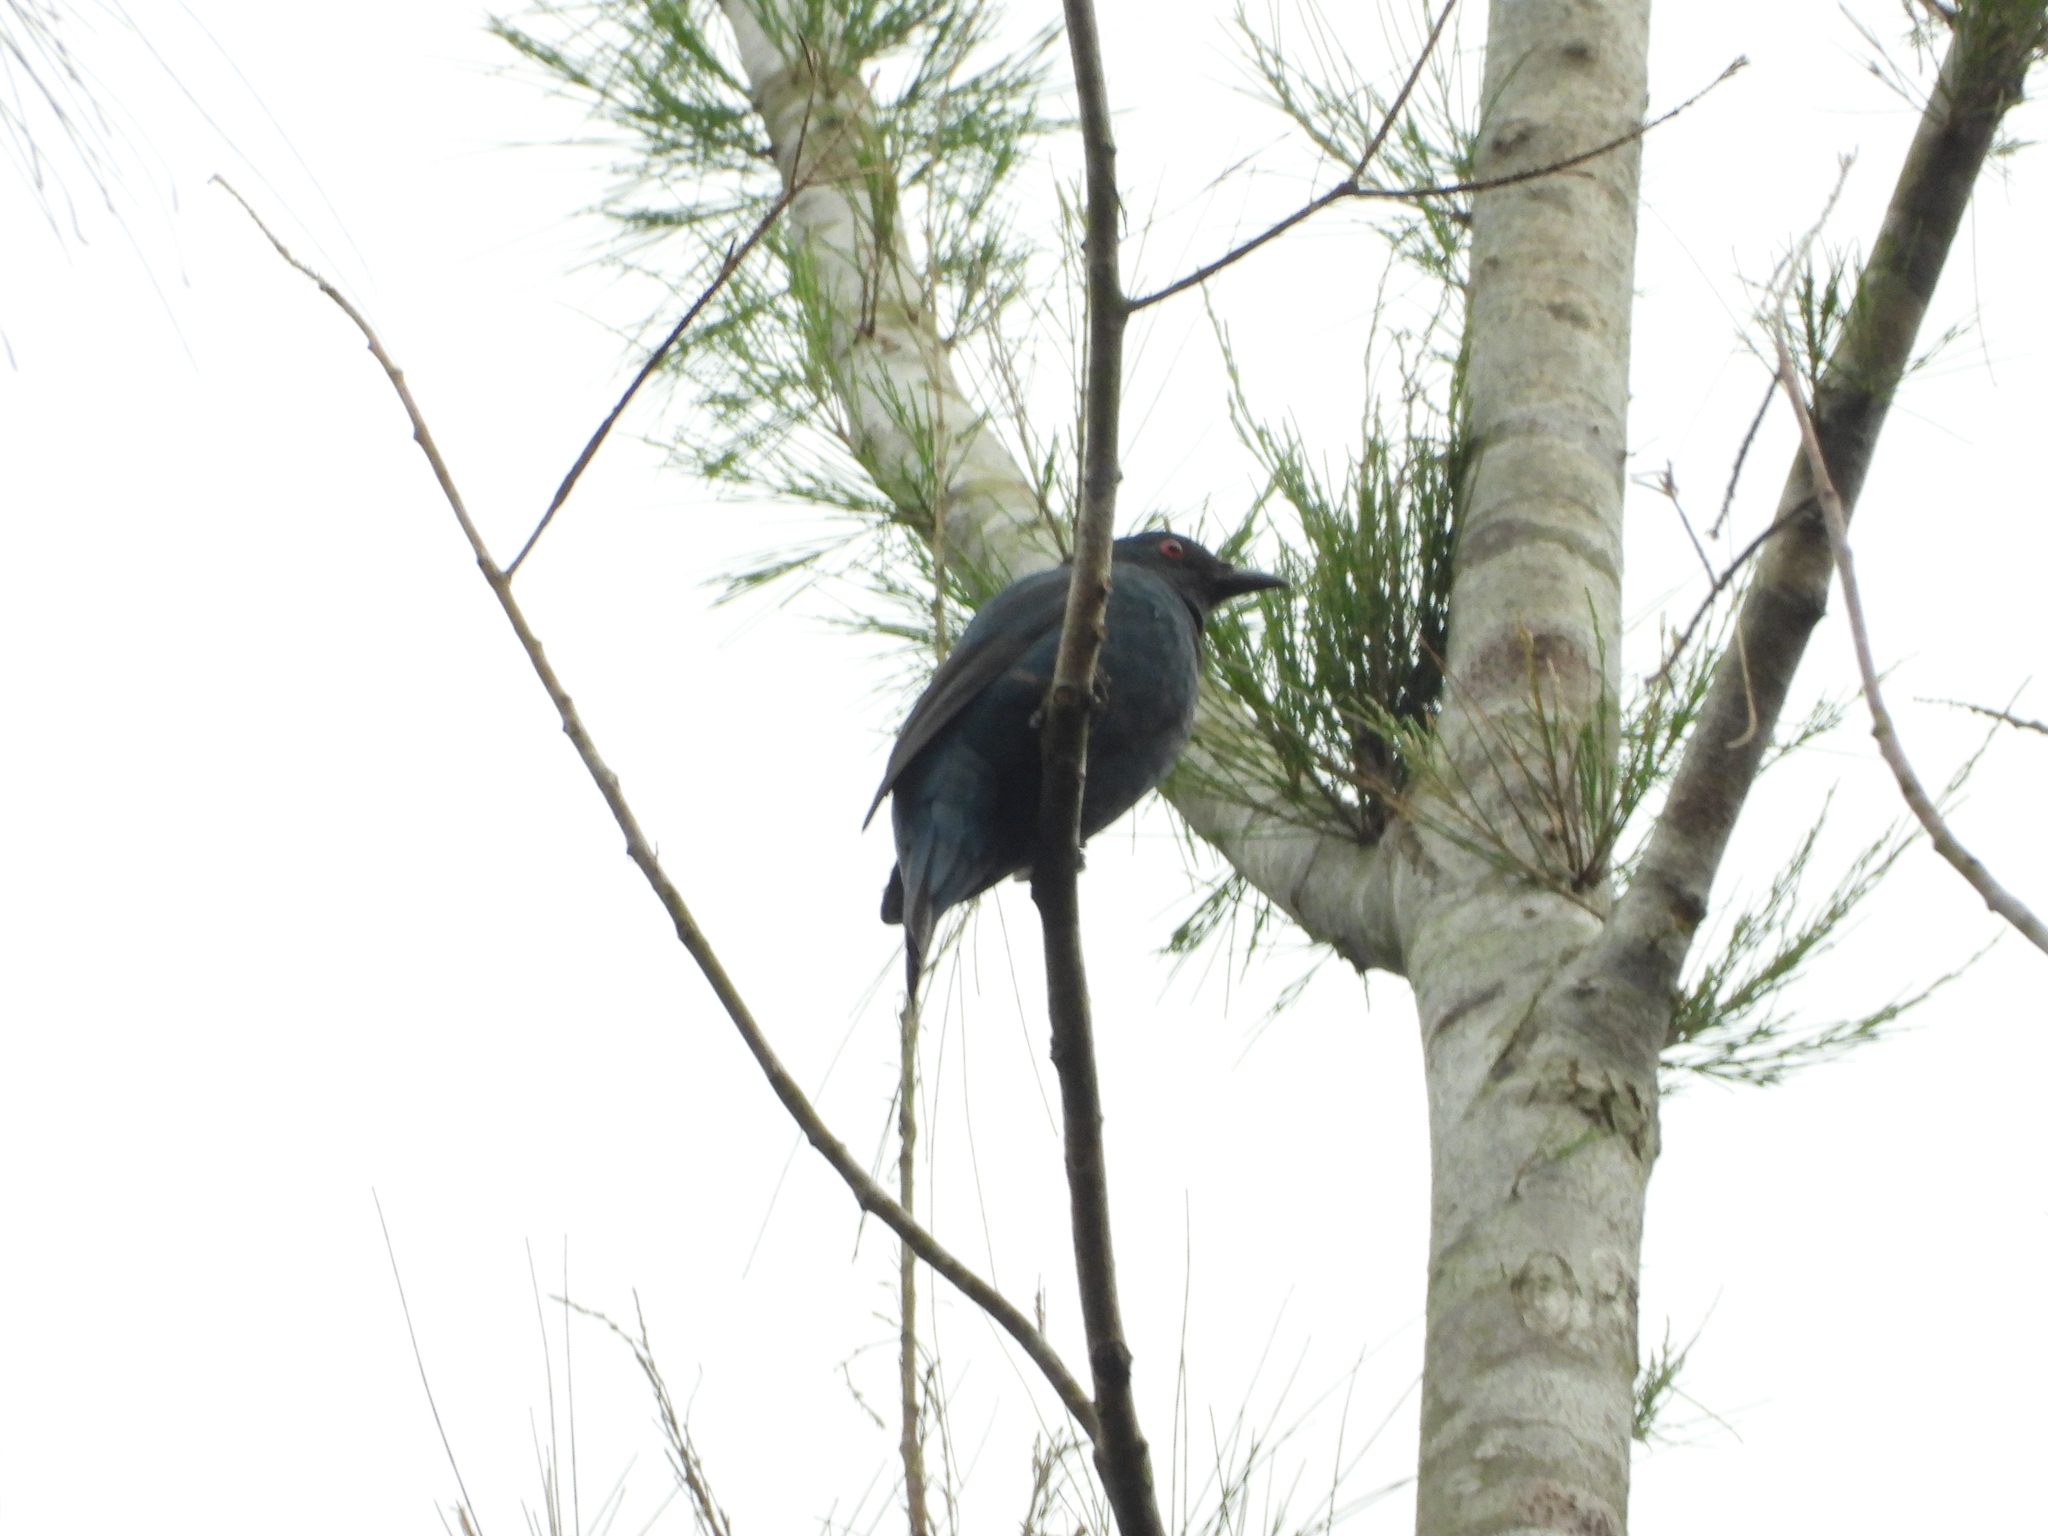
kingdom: Animalia
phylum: Chordata
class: Aves
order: Passeriformes
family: Irenidae
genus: Irena
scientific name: Irena puella
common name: Asian fairy-bluebird
